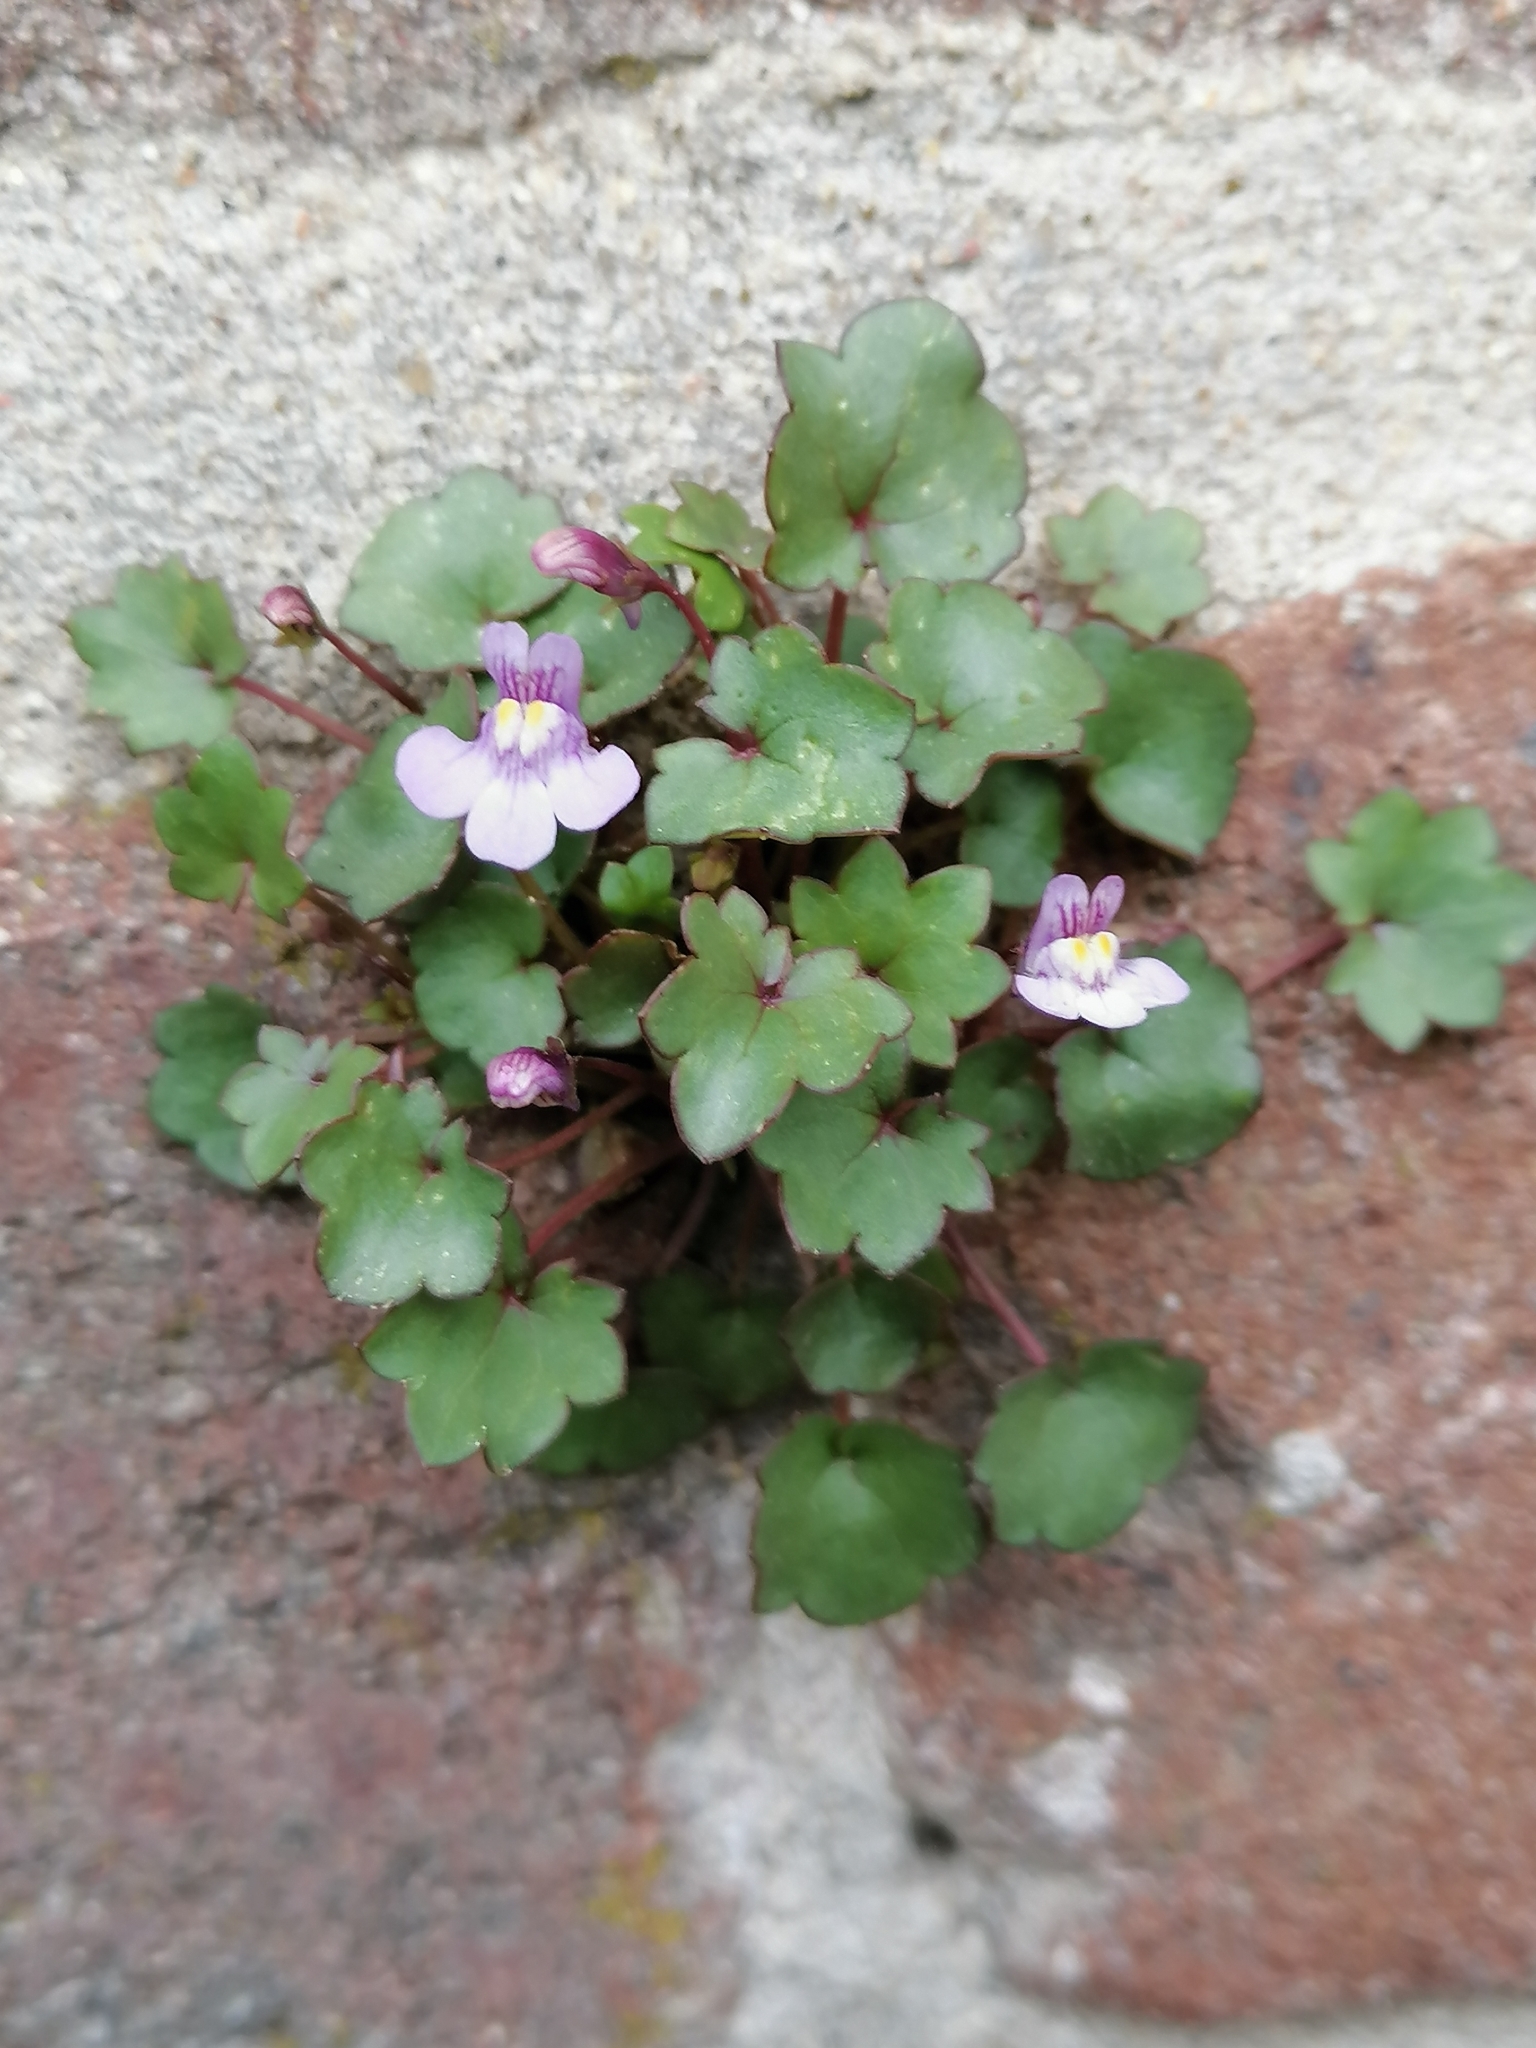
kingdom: Plantae
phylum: Tracheophyta
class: Magnoliopsida
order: Lamiales
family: Plantaginaceae
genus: Cymbalaria
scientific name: Cymbalaria muralis
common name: Ivy-leaved toadflax
